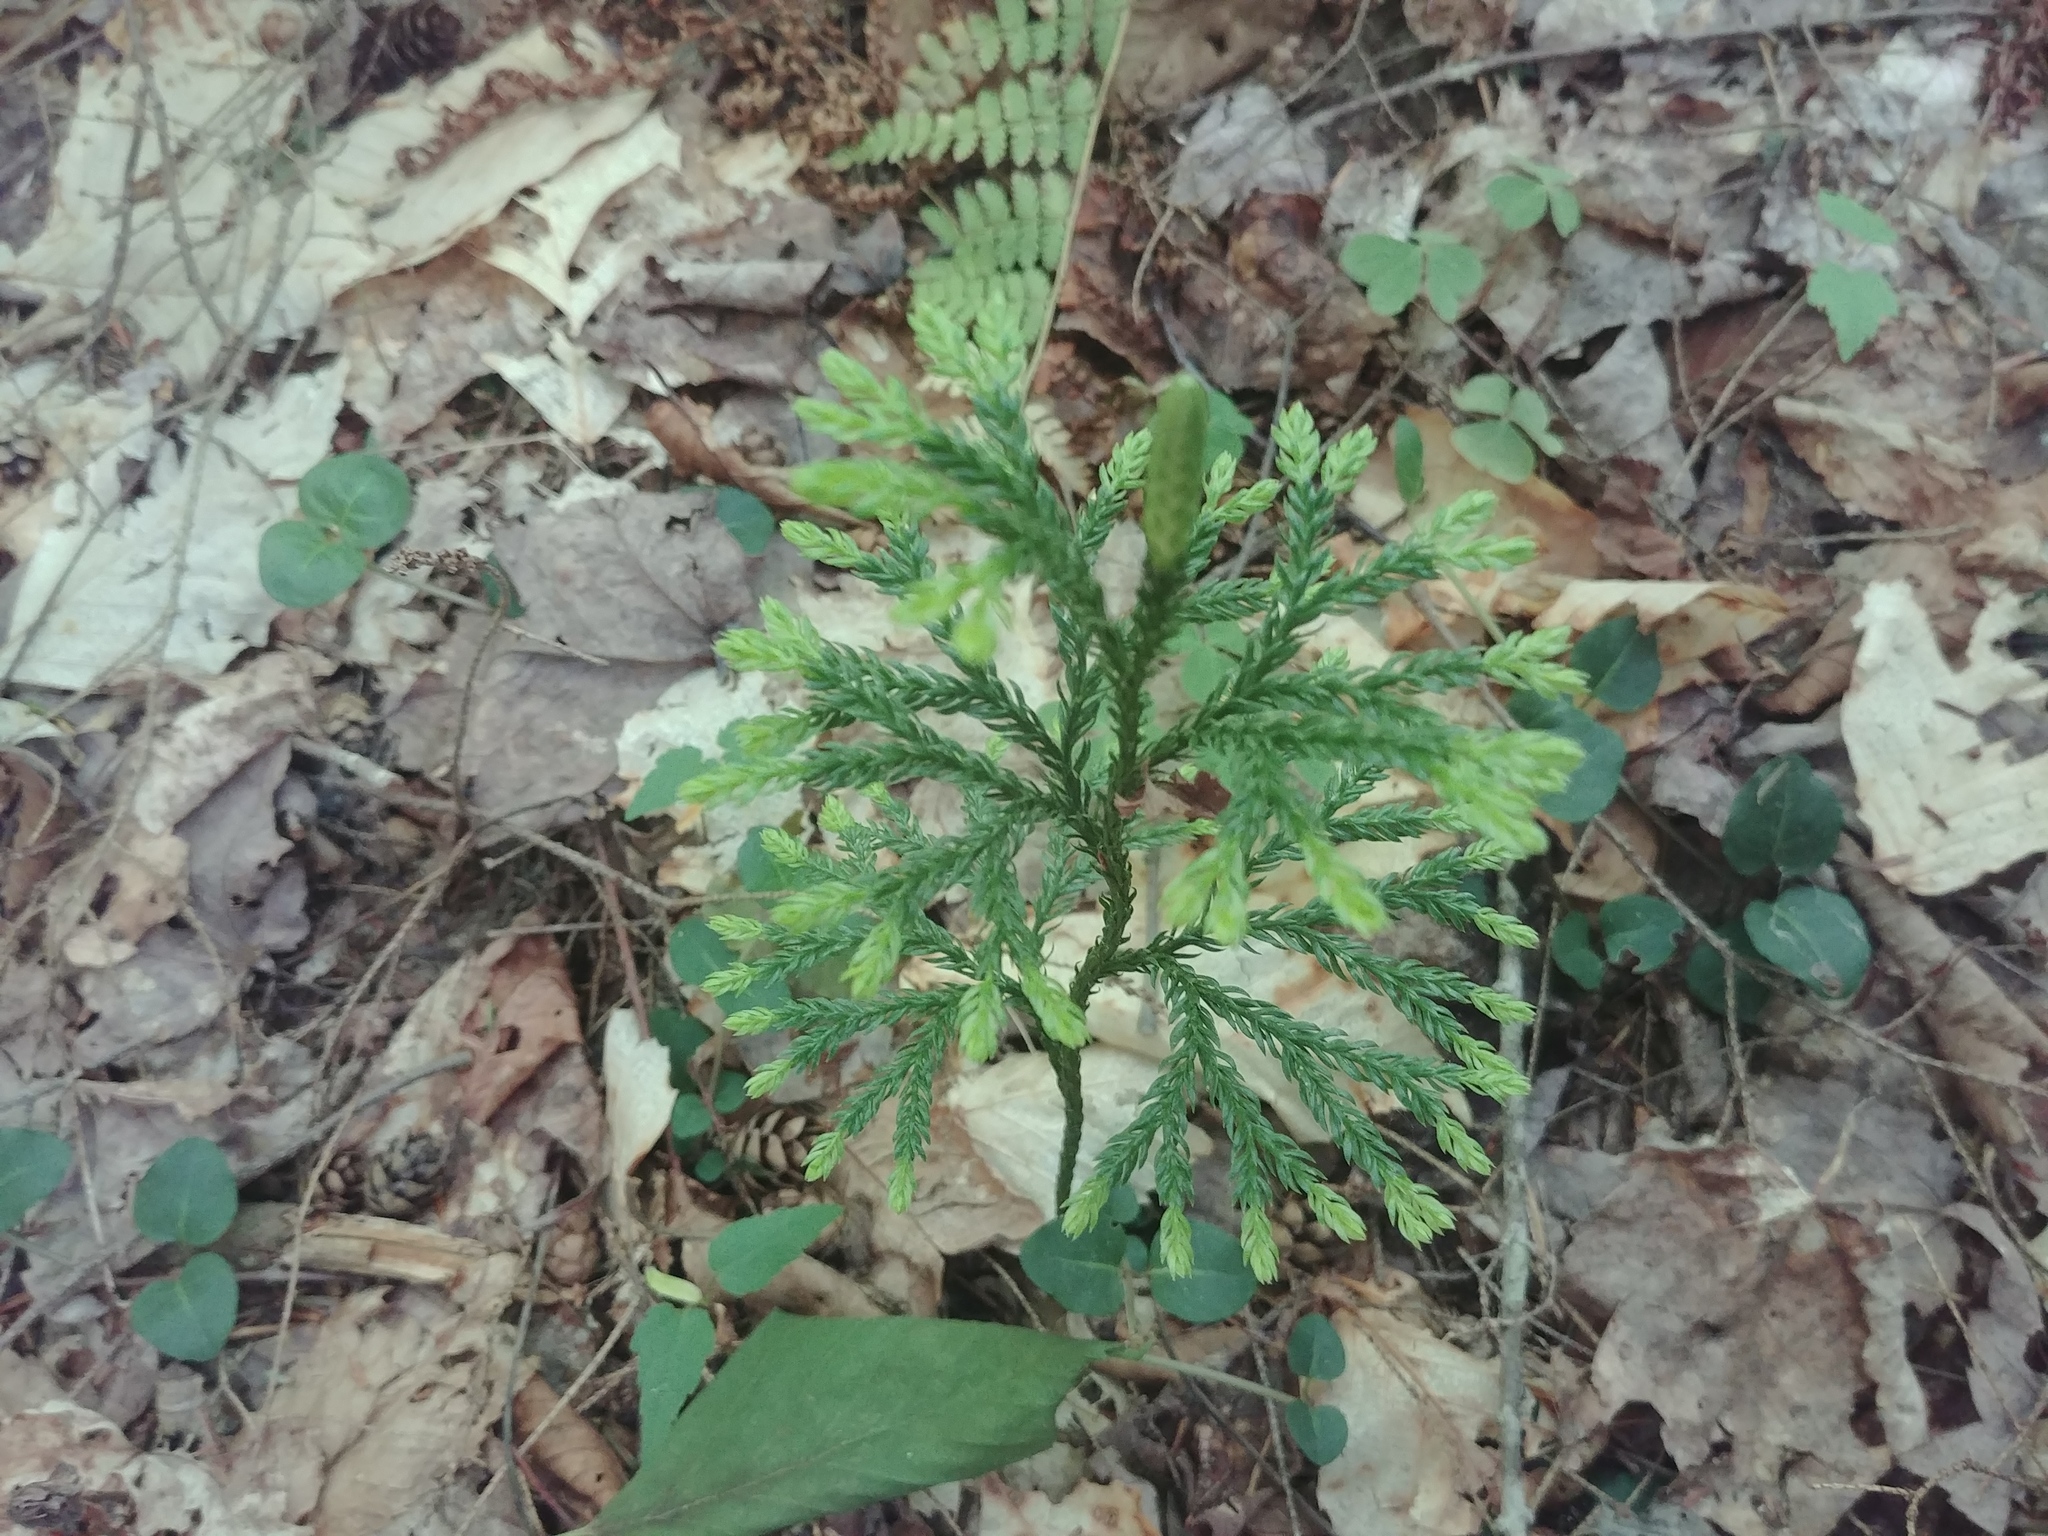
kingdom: Plantae
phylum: Tracheophyta
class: Lycopodiopsida
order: Lycopodiales
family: Lycopodiaceae
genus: Dendrolycopodium
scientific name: Dendrolycopodium obscurum
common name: Common ground-pine
